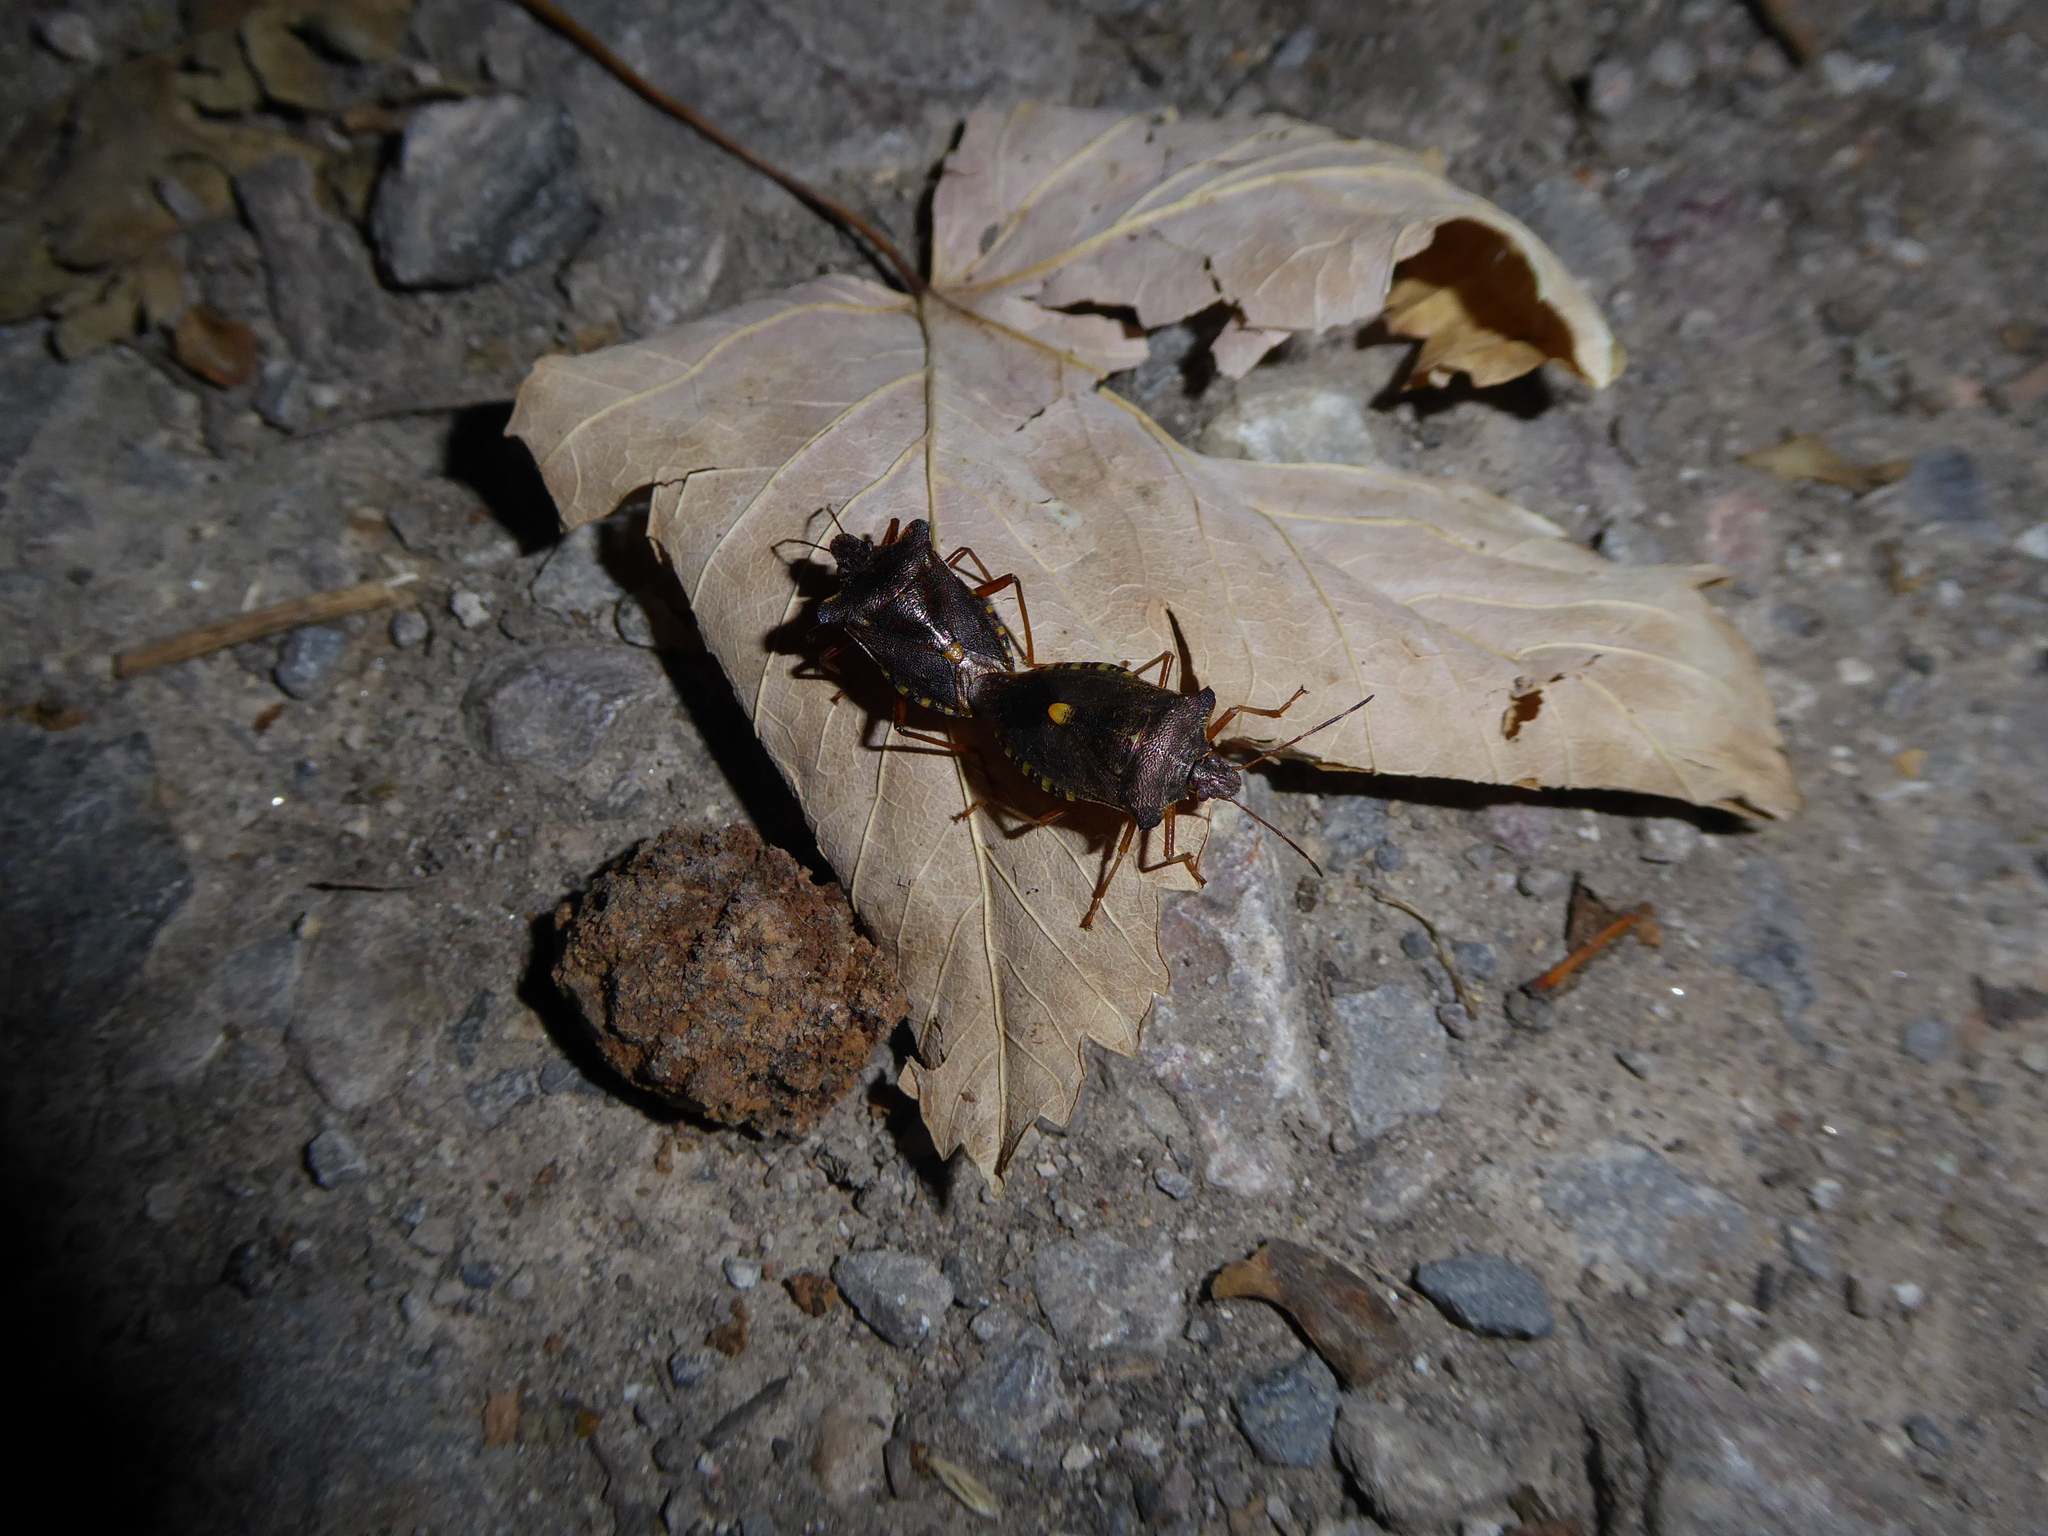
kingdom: Animalia
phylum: Arthropoda
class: Insecta
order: Hemiptera
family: Pentatomidae
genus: Pentatoma
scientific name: Pentatoma rufipes
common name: Forest bug
